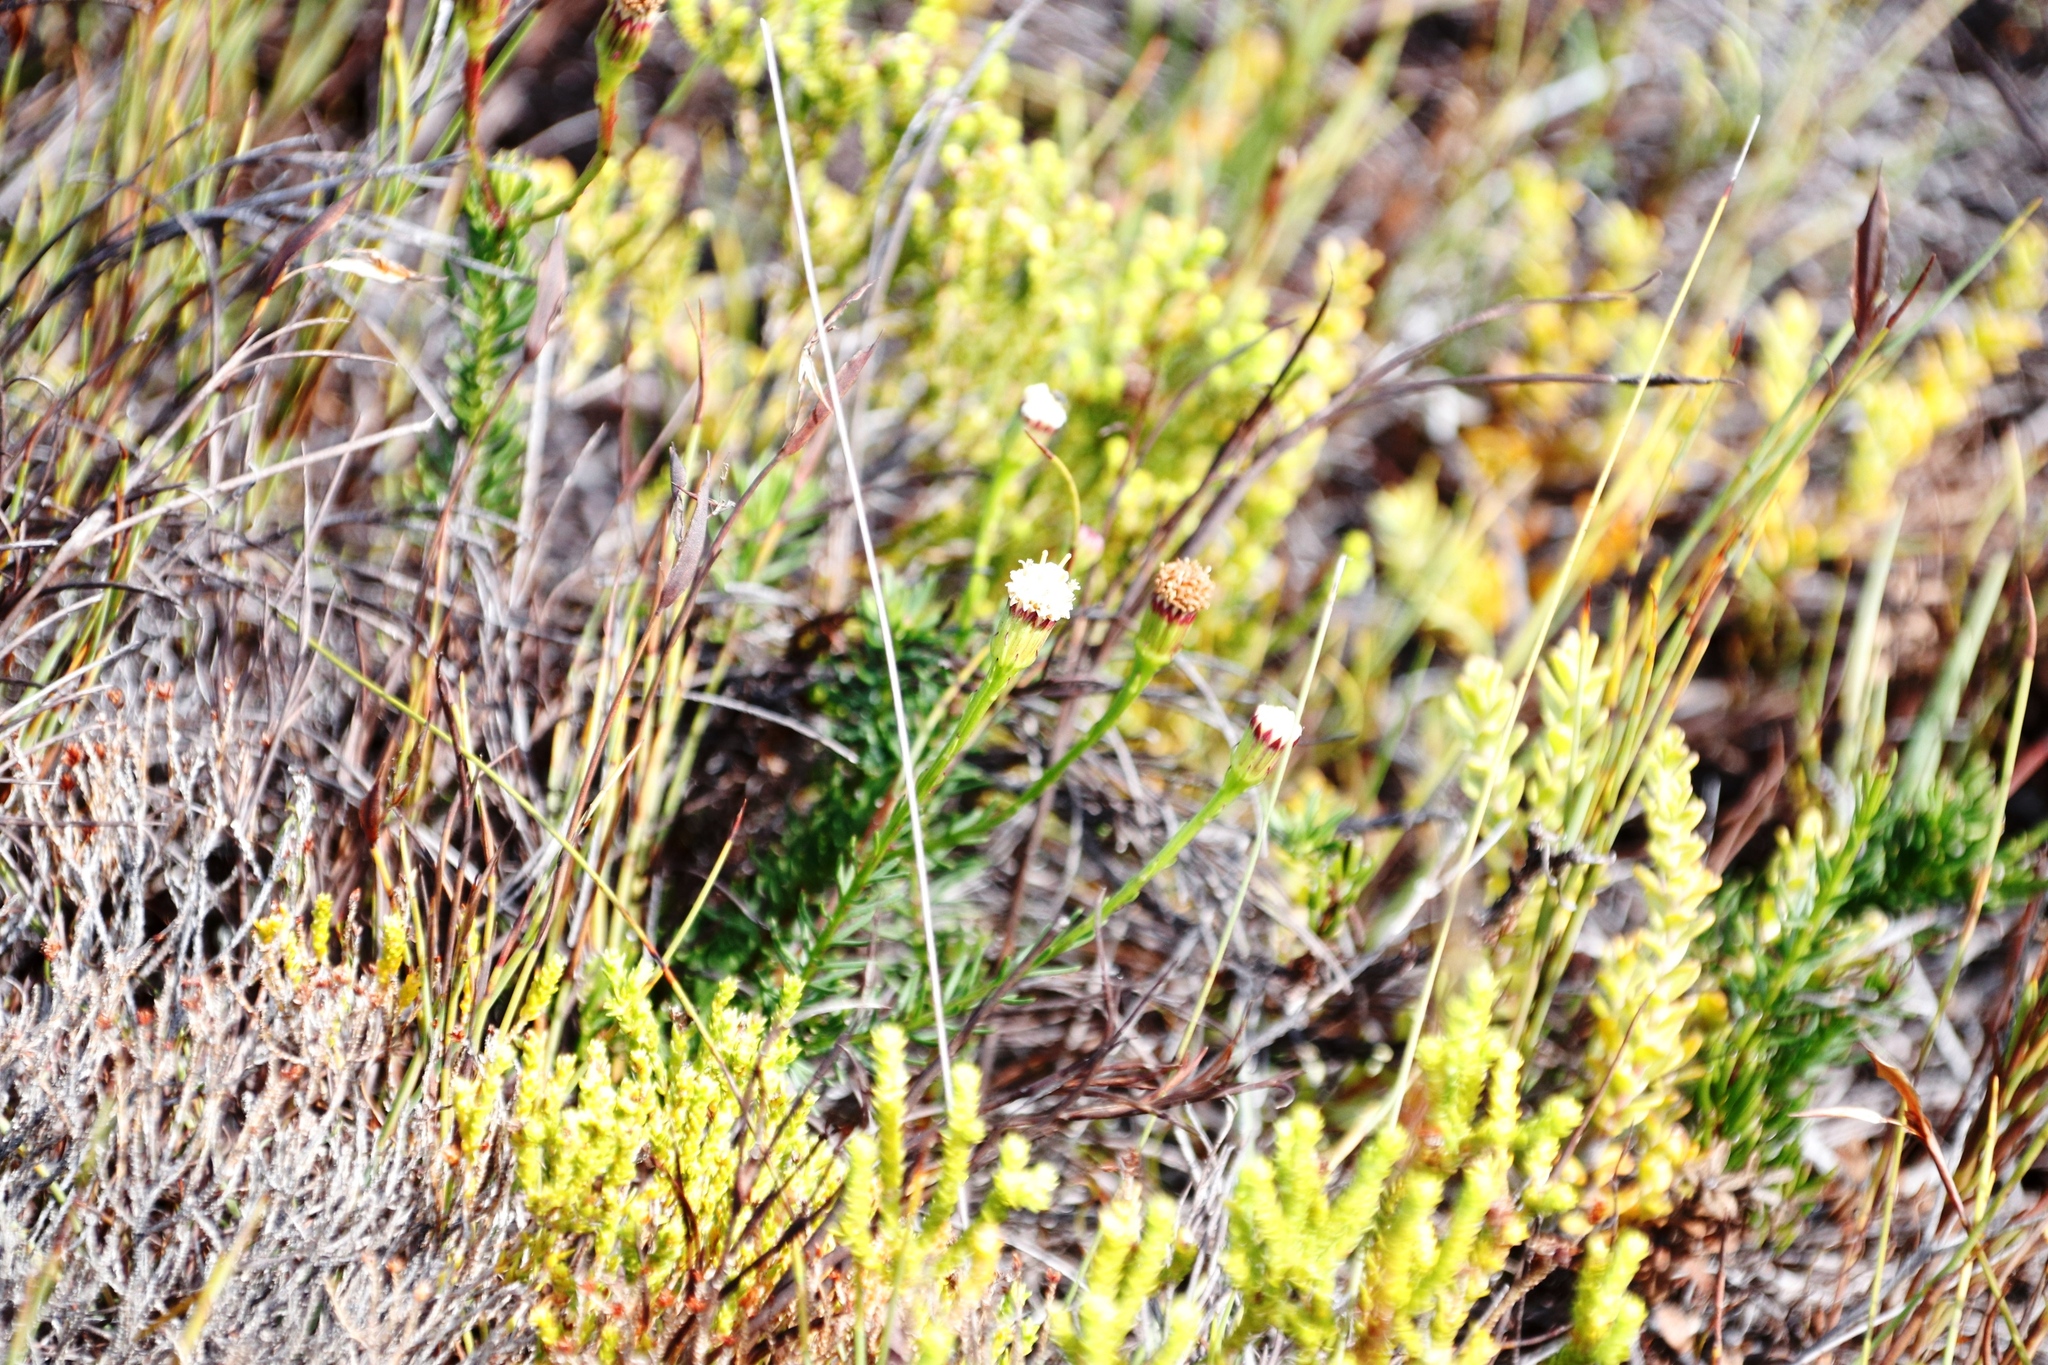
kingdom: Plantae
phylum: Tracheophyta
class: Magnoliopsida
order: Asterales
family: Asteraceae
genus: Senecio
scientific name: Senecio triqueter
